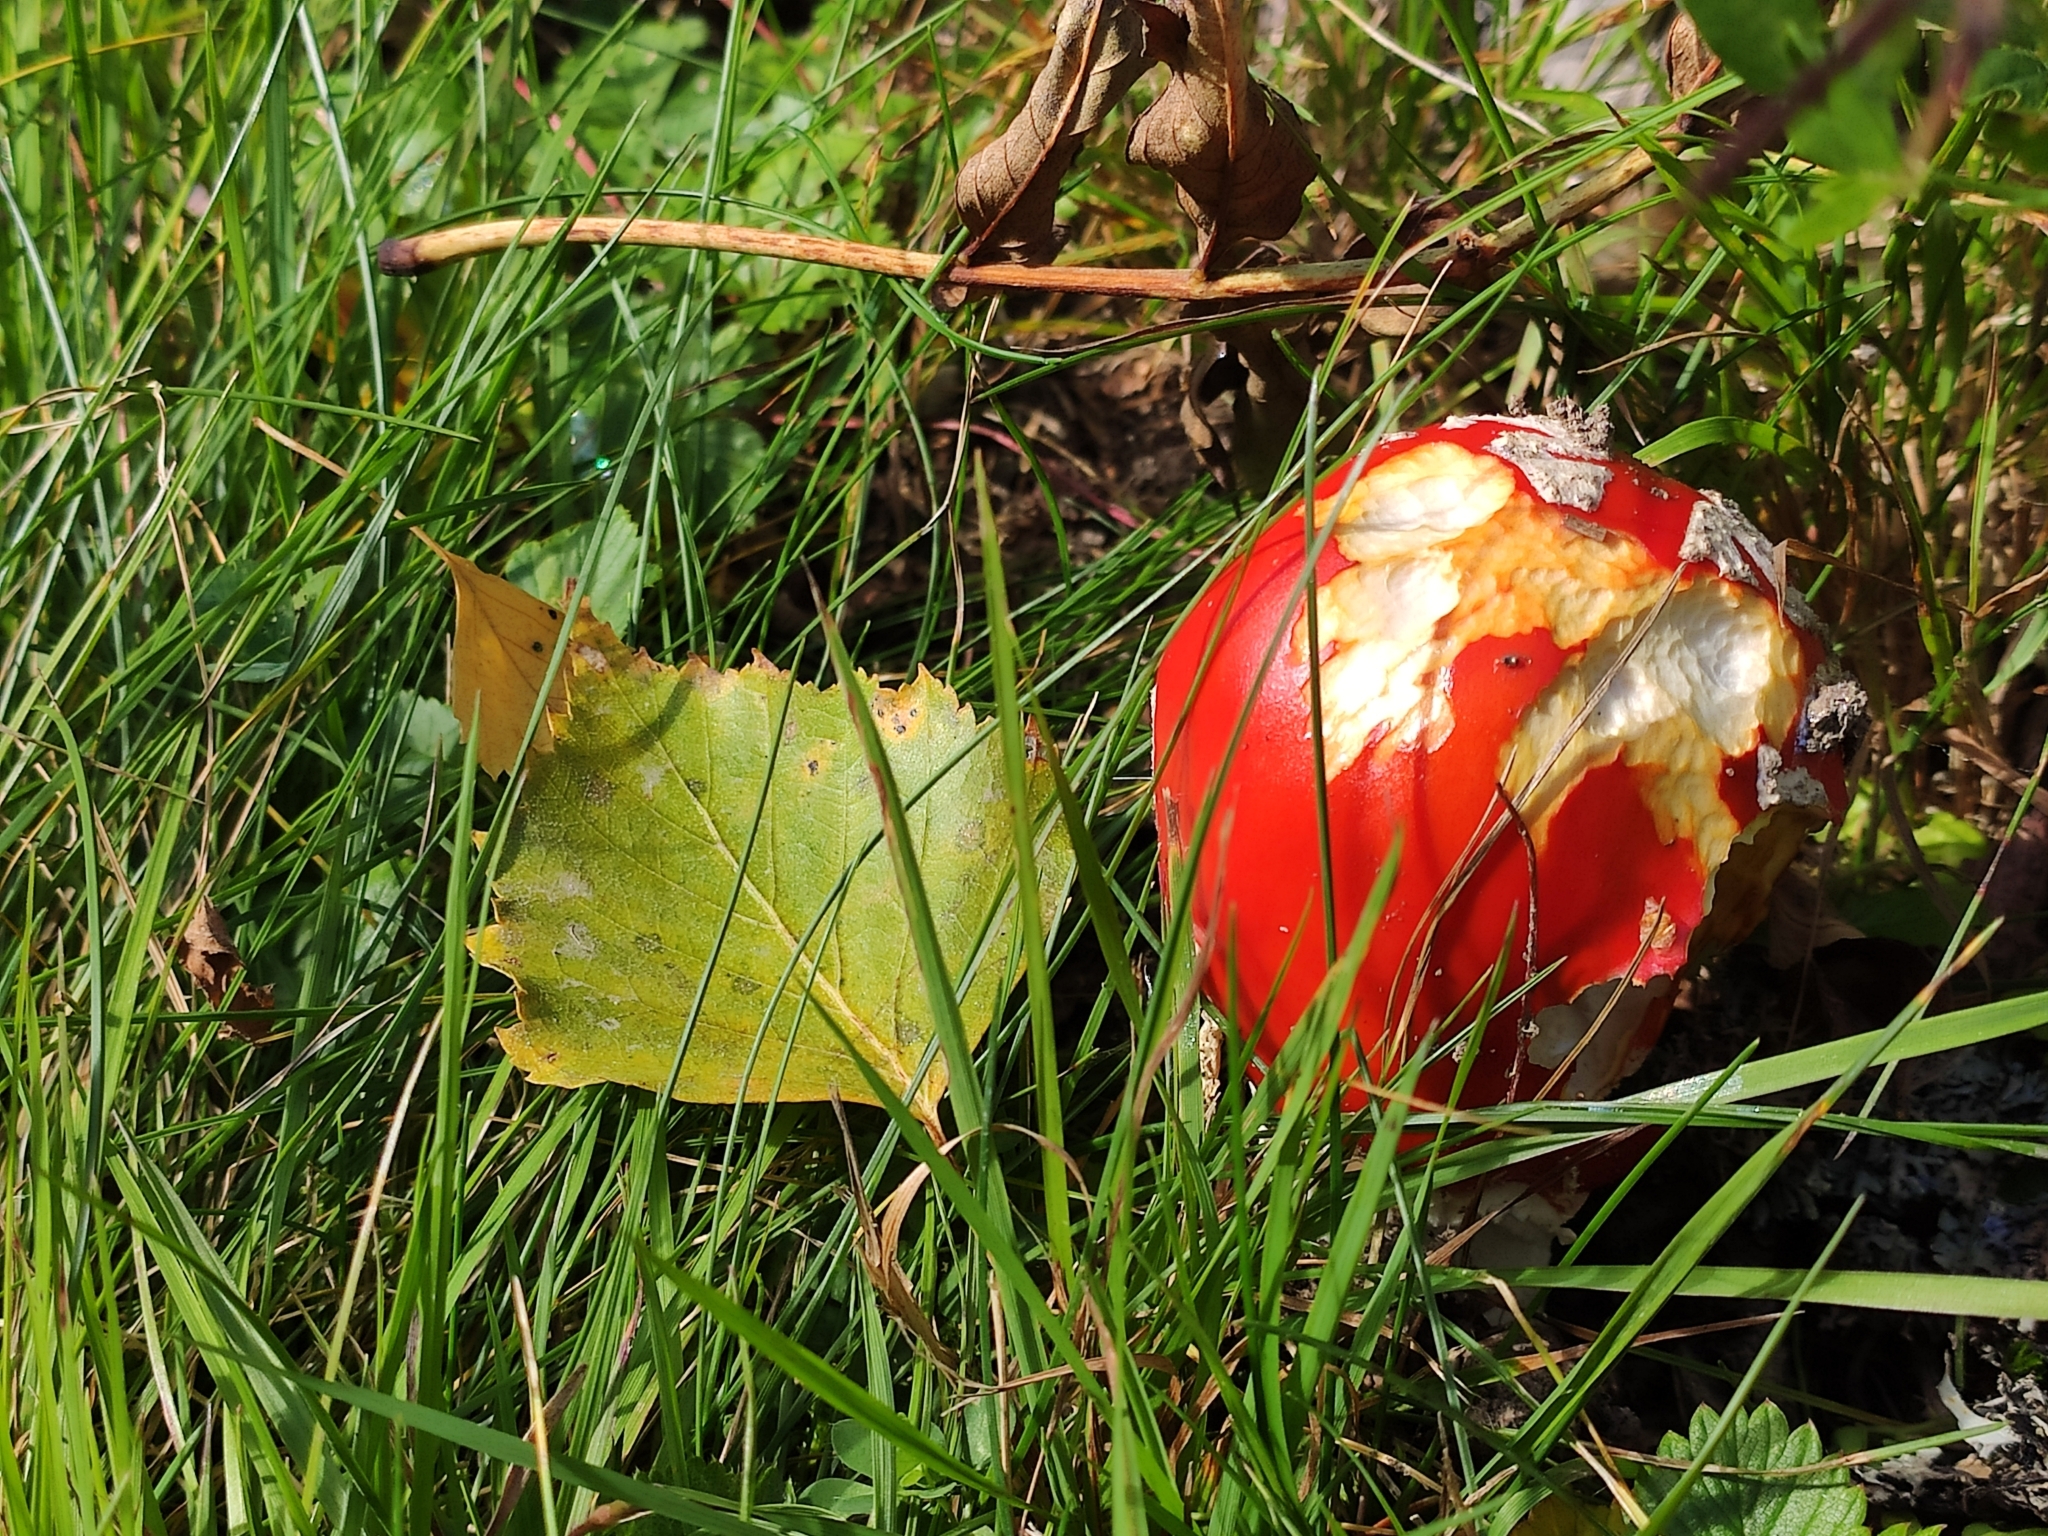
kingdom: Fungi
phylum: Basidiomycota
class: Agaricomycetes
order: Agaricales
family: Amanitaceae
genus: Amanita
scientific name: Amanita muscaria
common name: Fly agaric
